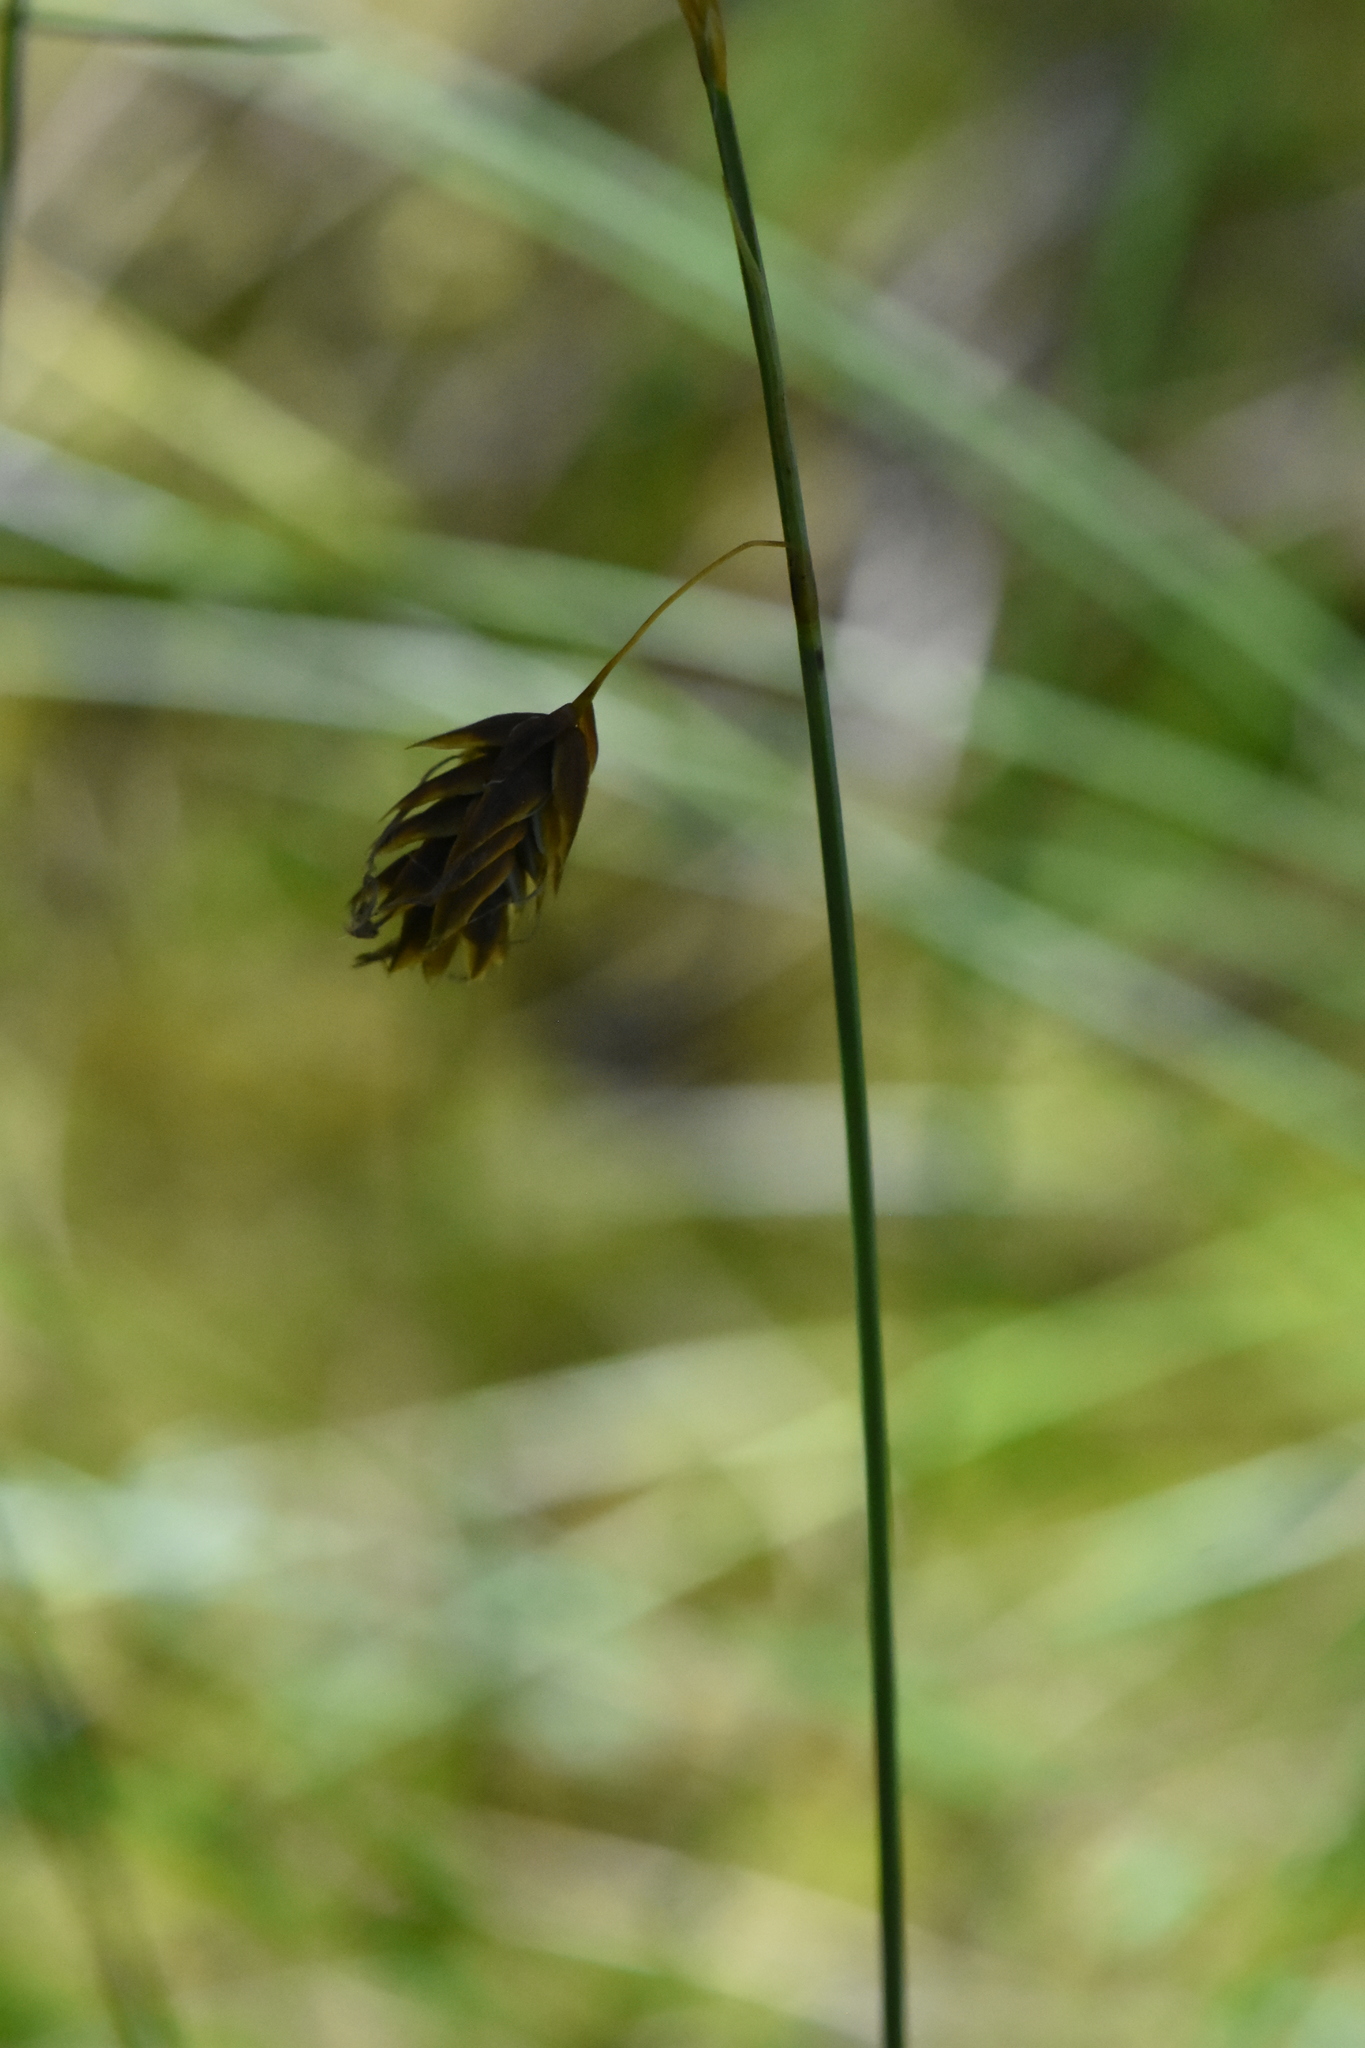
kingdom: Plantae
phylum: Tracheophyta
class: Liliopsida
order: Poales
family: Cyperaceae
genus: Carex
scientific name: Carex limosa
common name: Bog sedge
